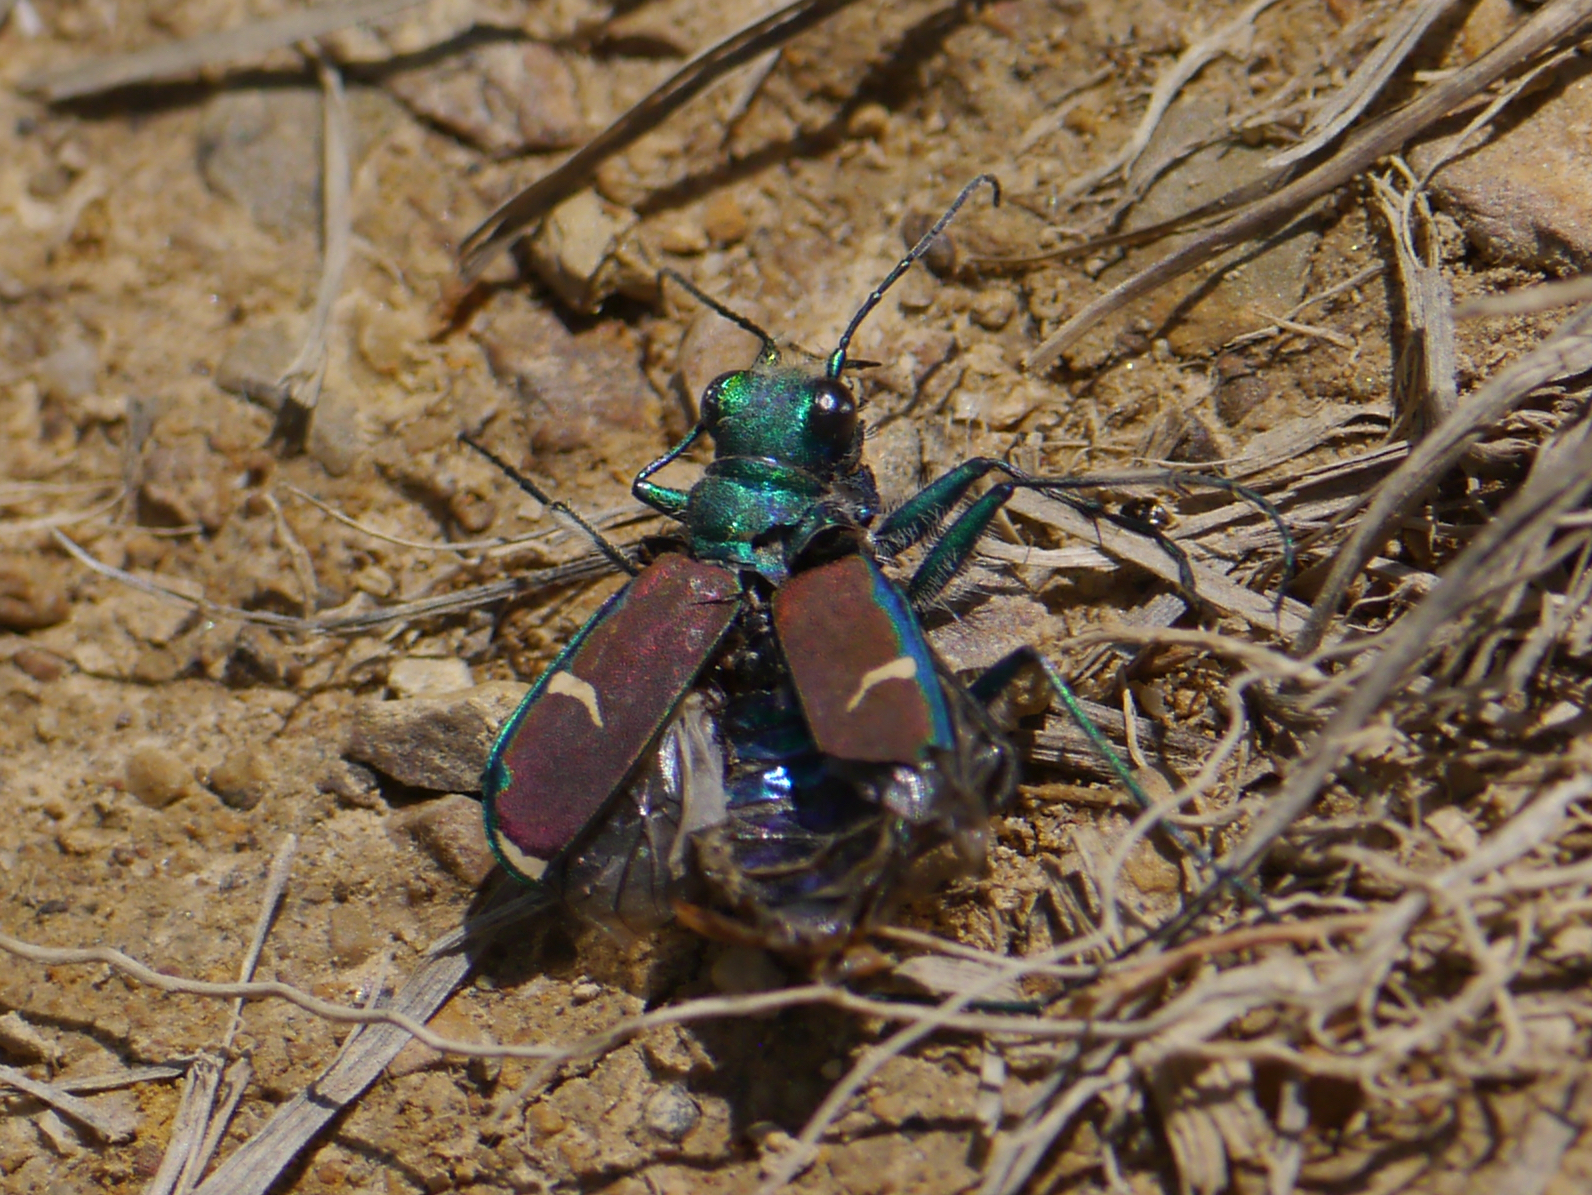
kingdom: Animalia
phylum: Arthropoda
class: Insecta
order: Coleoptera
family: Carabidae
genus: Cicindela
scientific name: Cicindela splendida
